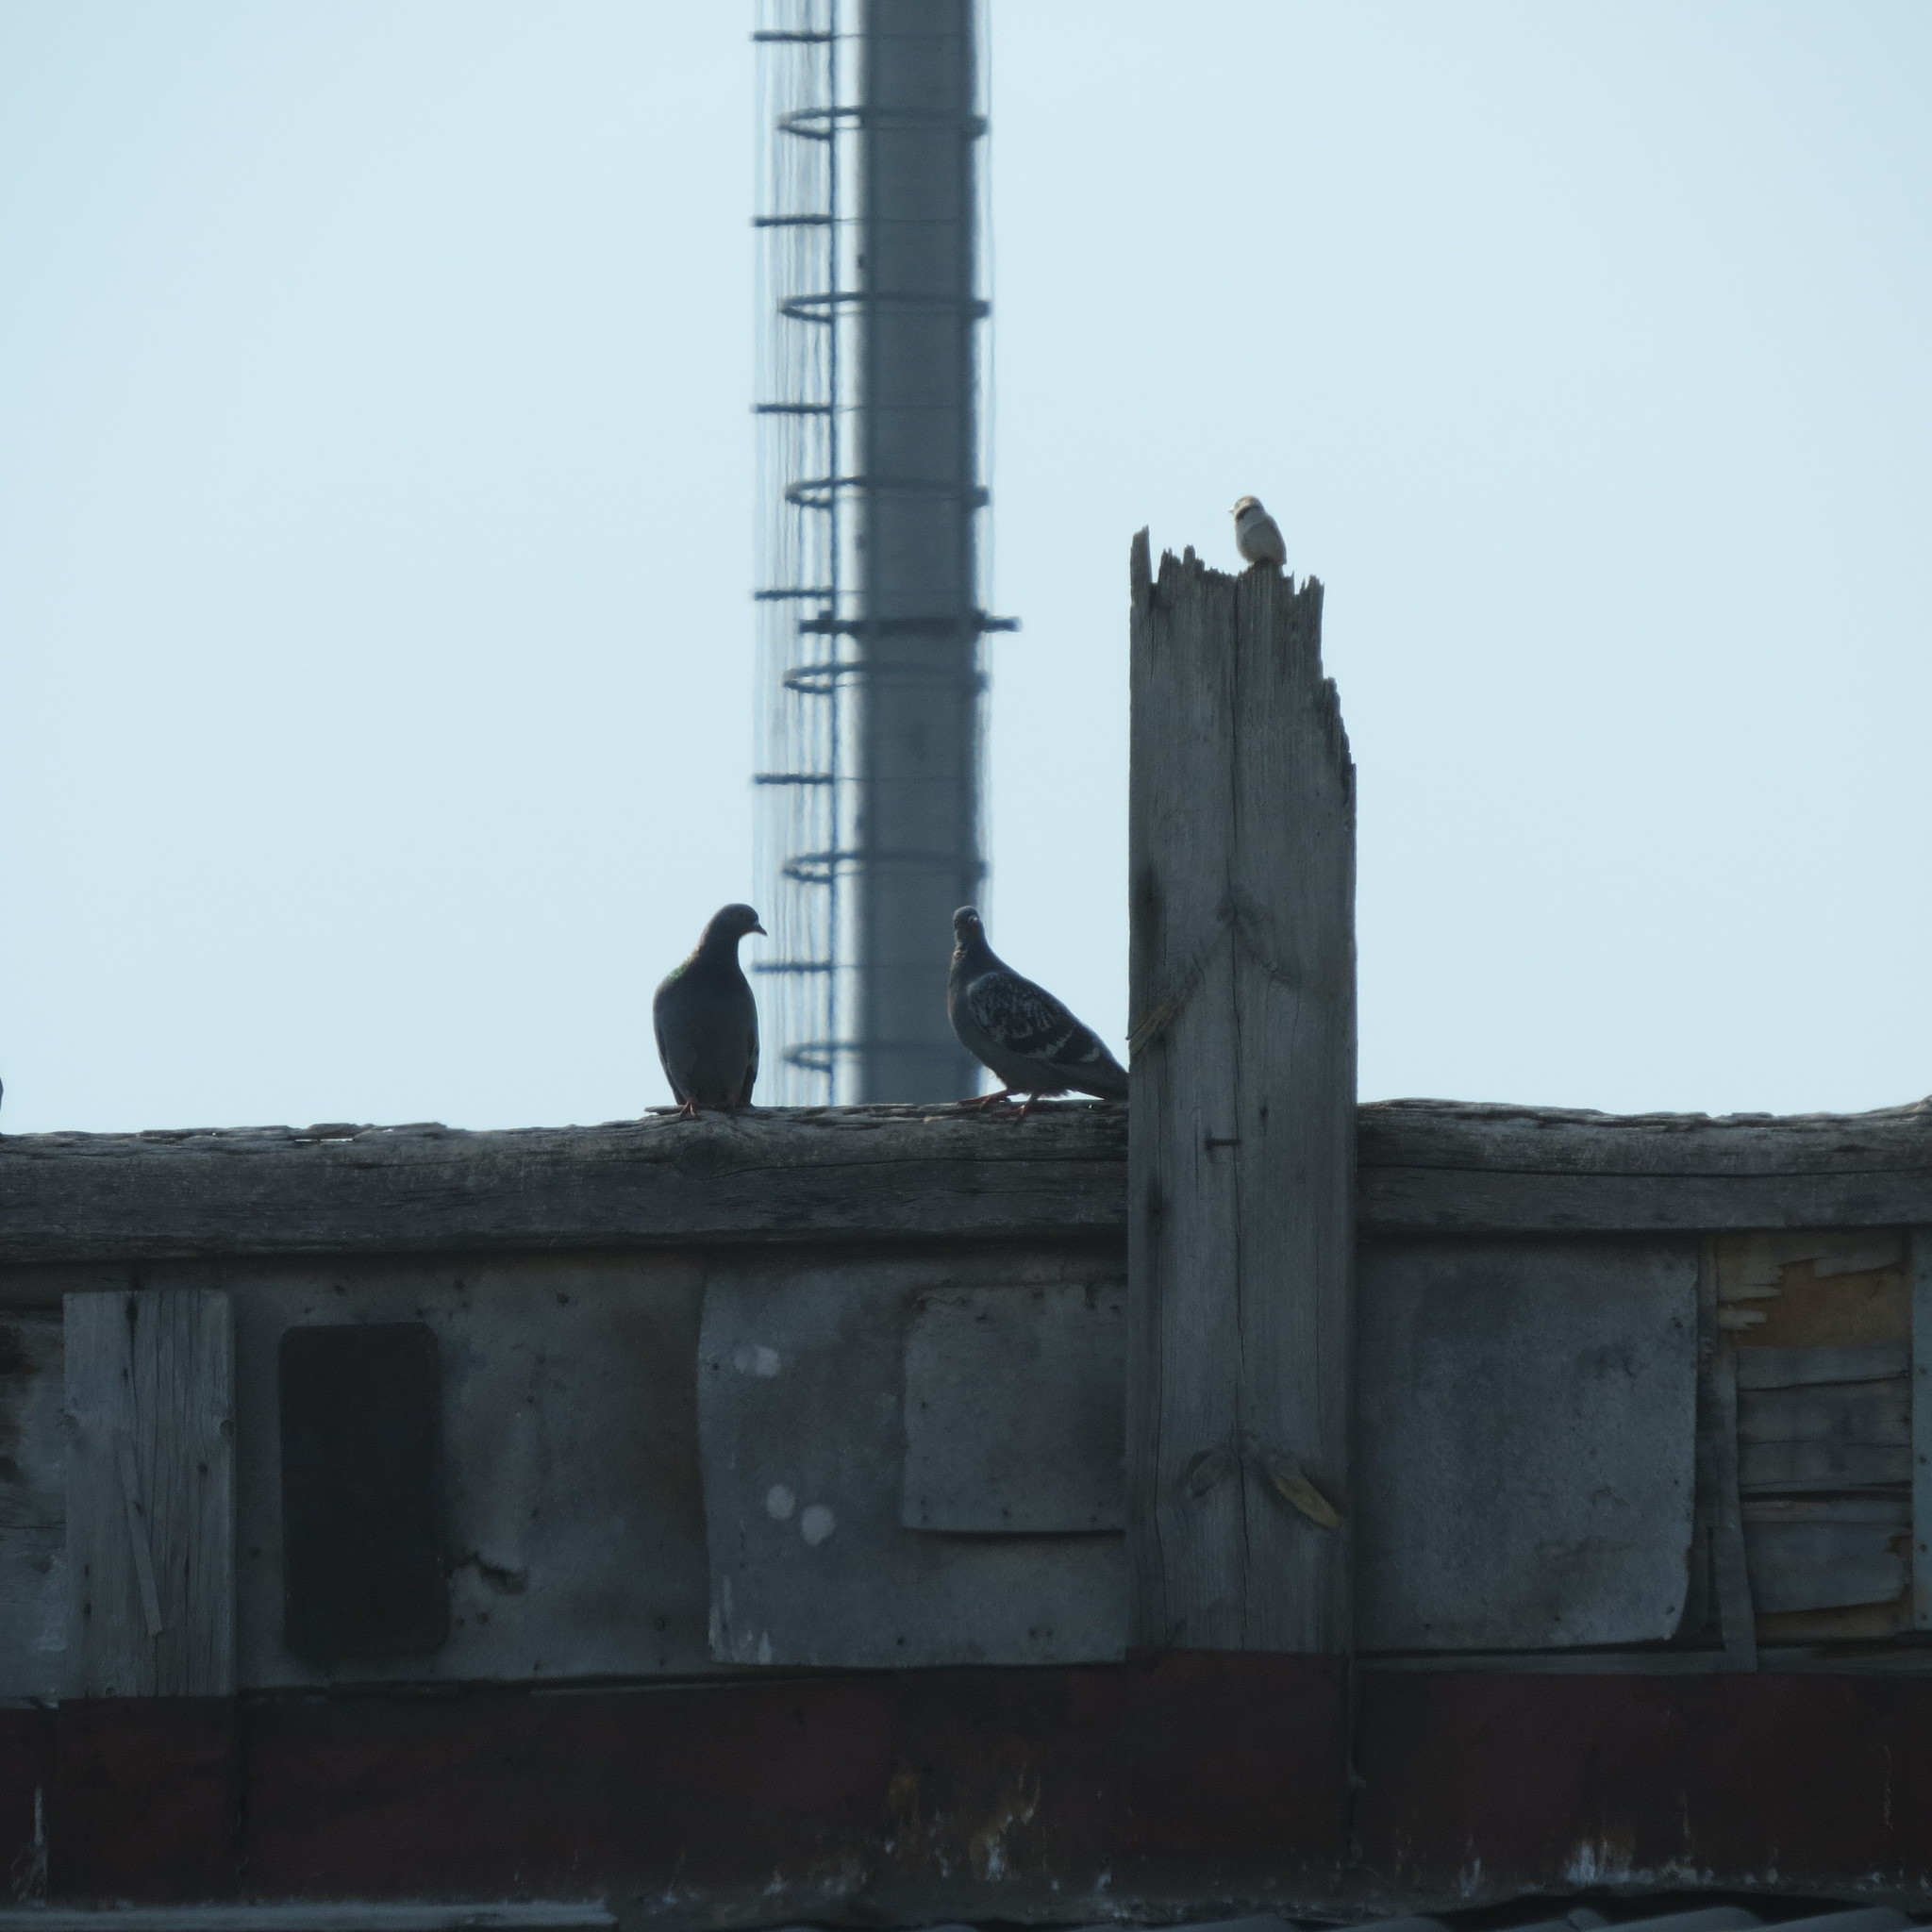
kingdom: Animalia
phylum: Chordata
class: Aves
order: Columbiformes
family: Columbidae
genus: Columba
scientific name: Columba livia
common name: Rock pigeon
